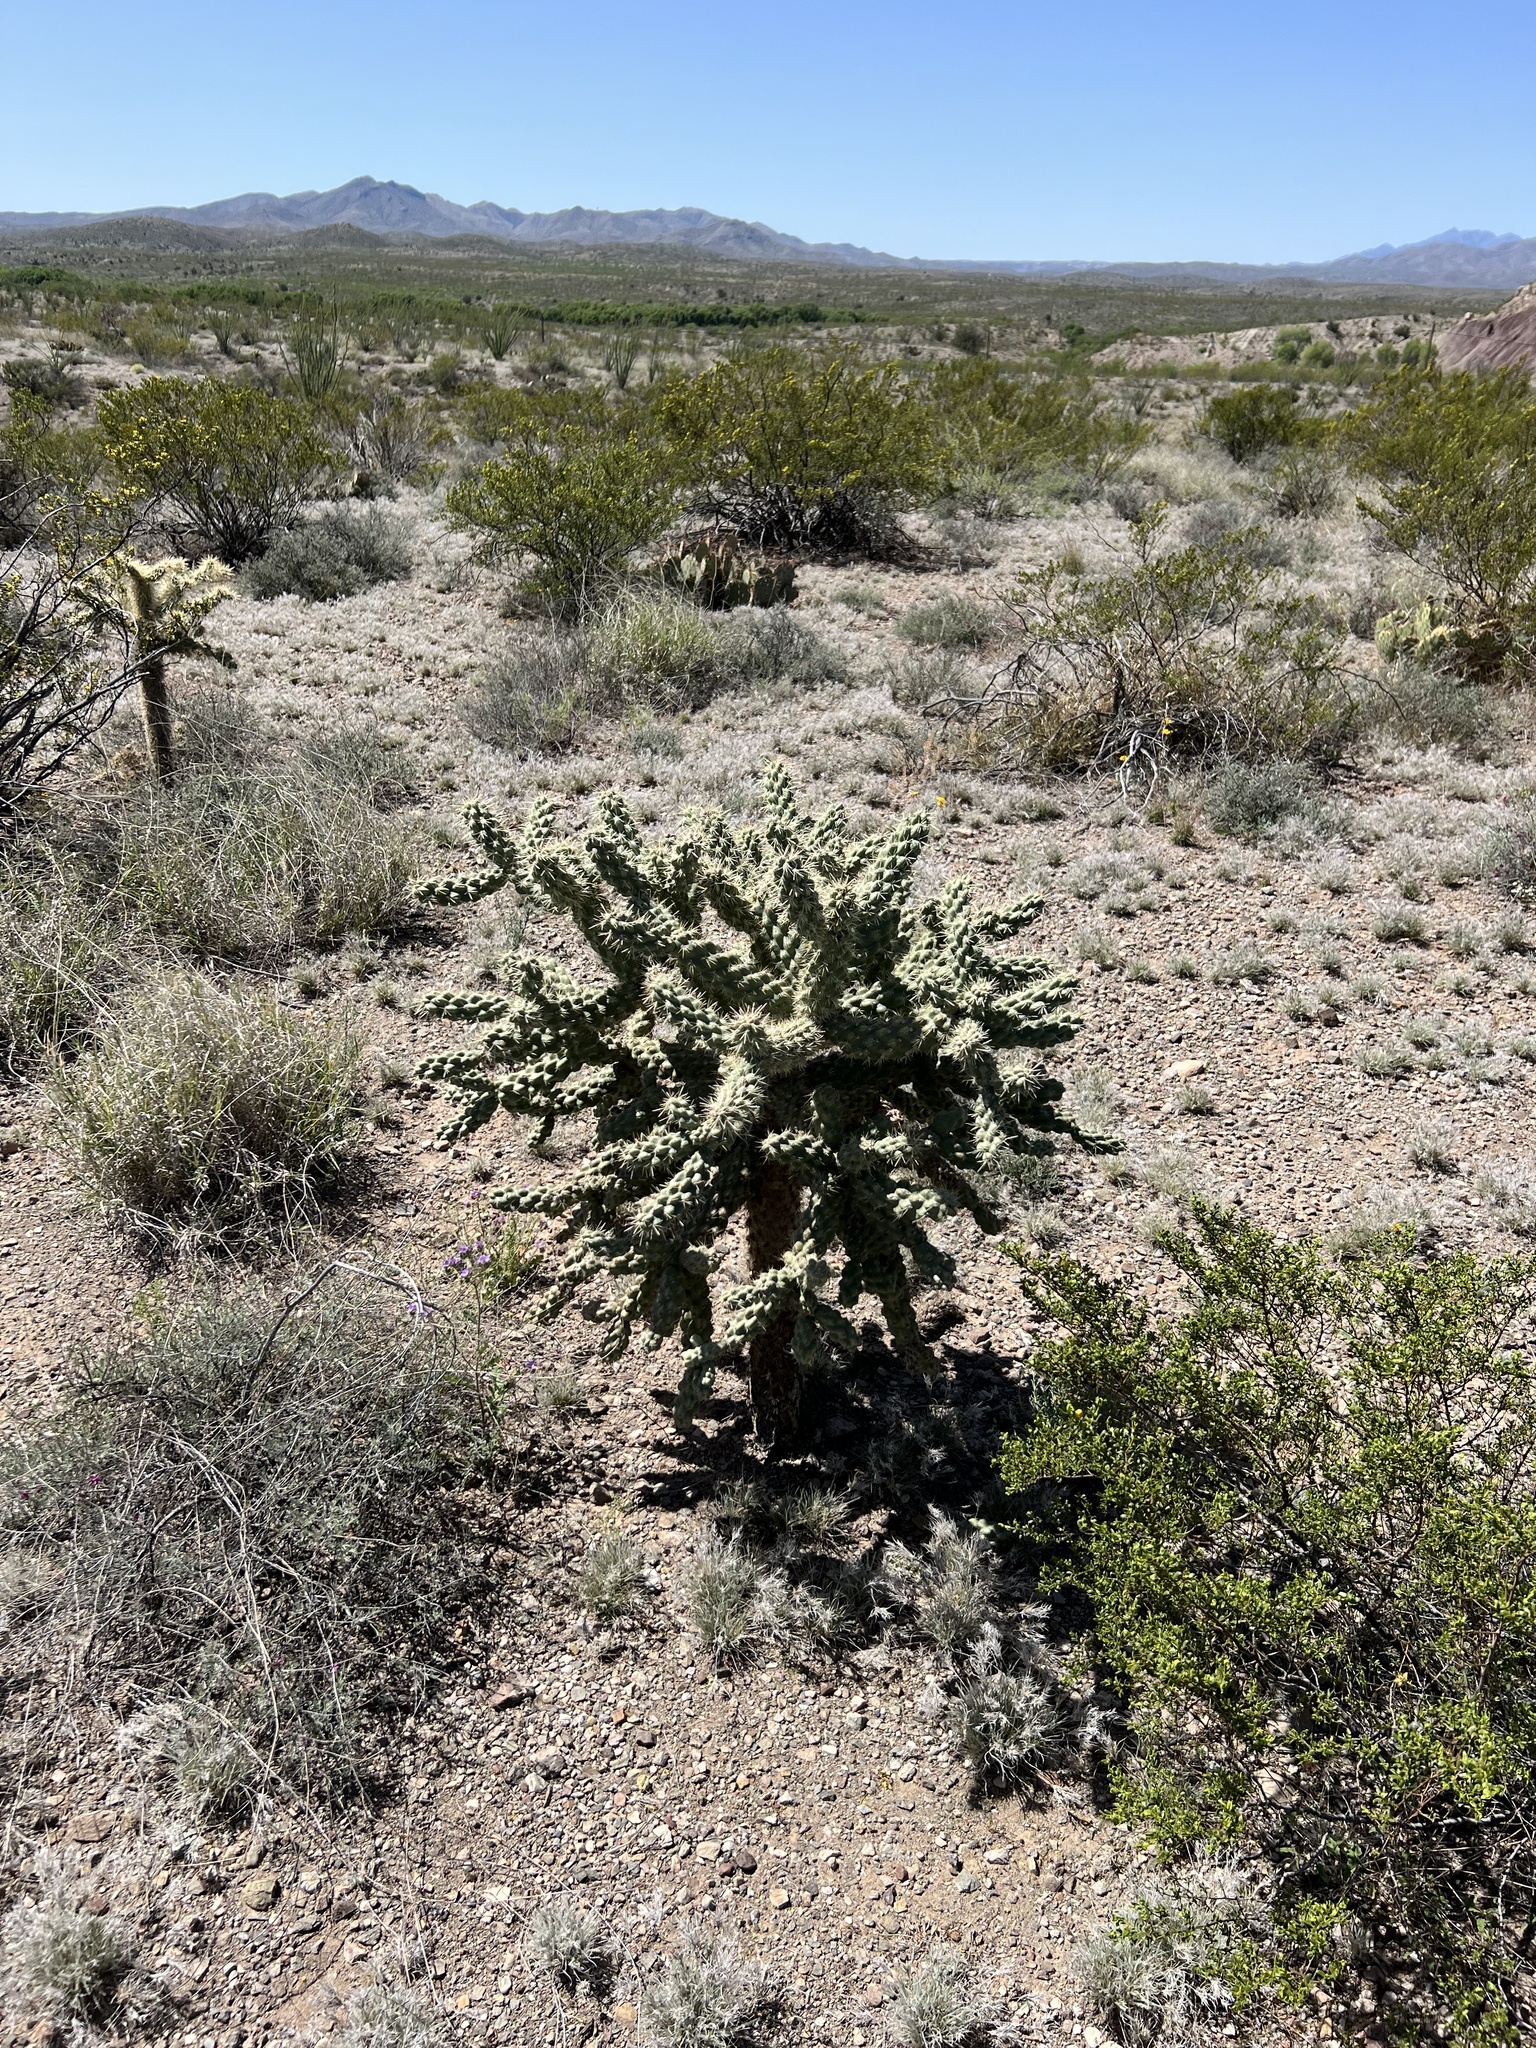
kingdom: Plantae
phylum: Tracheophyta
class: Magnoliopsida
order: Caryophyllales
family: Cactaceae
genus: Cylindropuntia
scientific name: Cylindropuntia fulgida
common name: Jumping cholla
